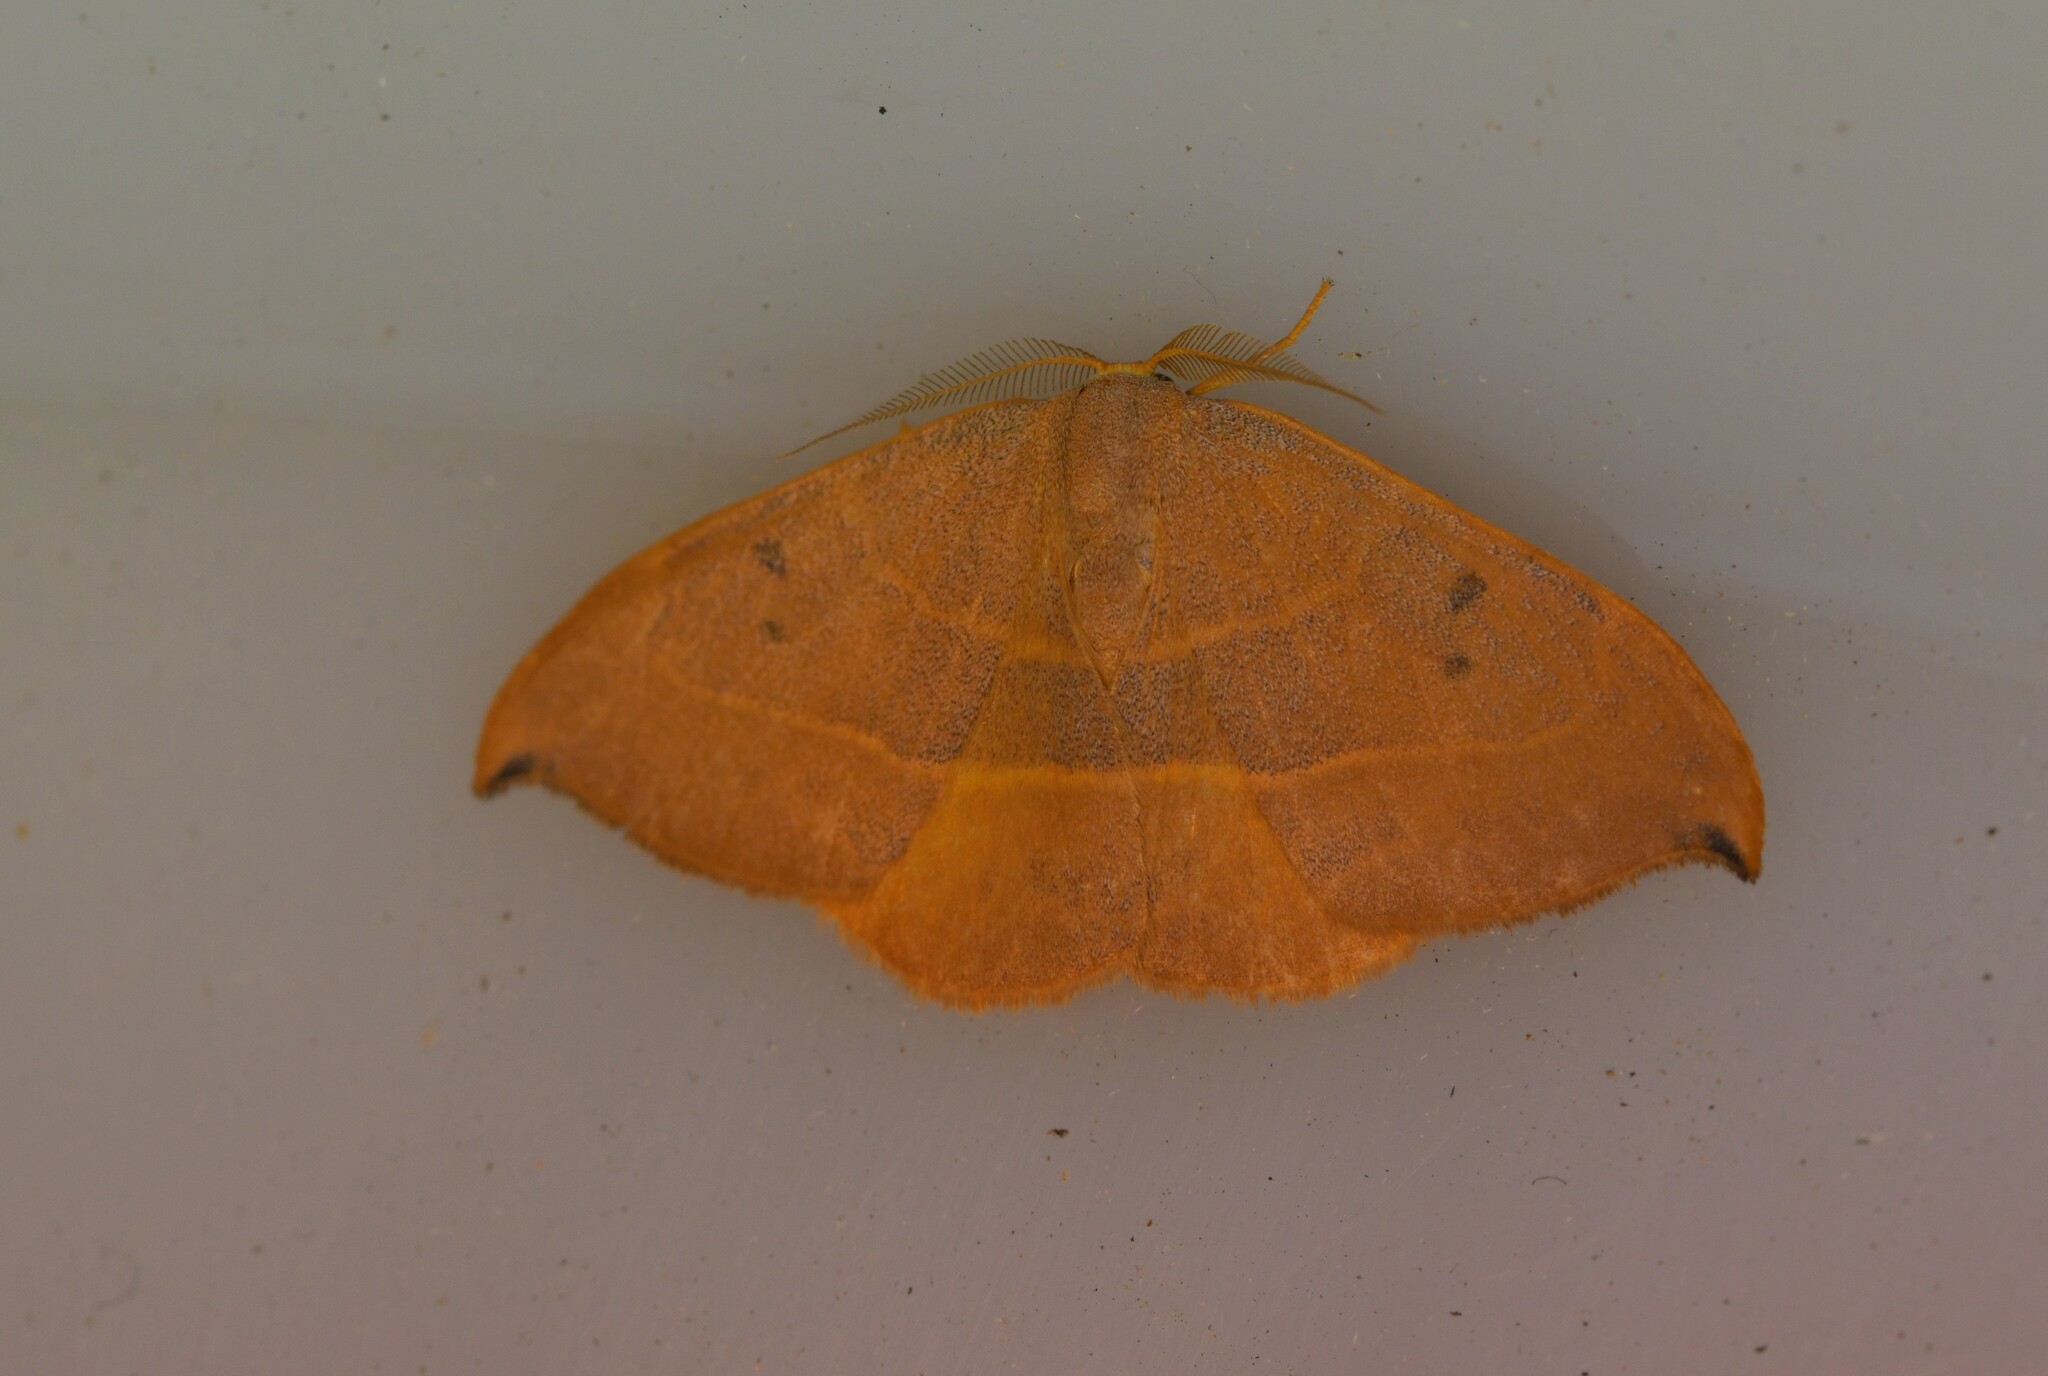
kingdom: Animalia
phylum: Arthropoda
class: Insecta
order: Lepidoptera
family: Drepanidae
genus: Watsonalla
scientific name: Watsonalla uncinula
